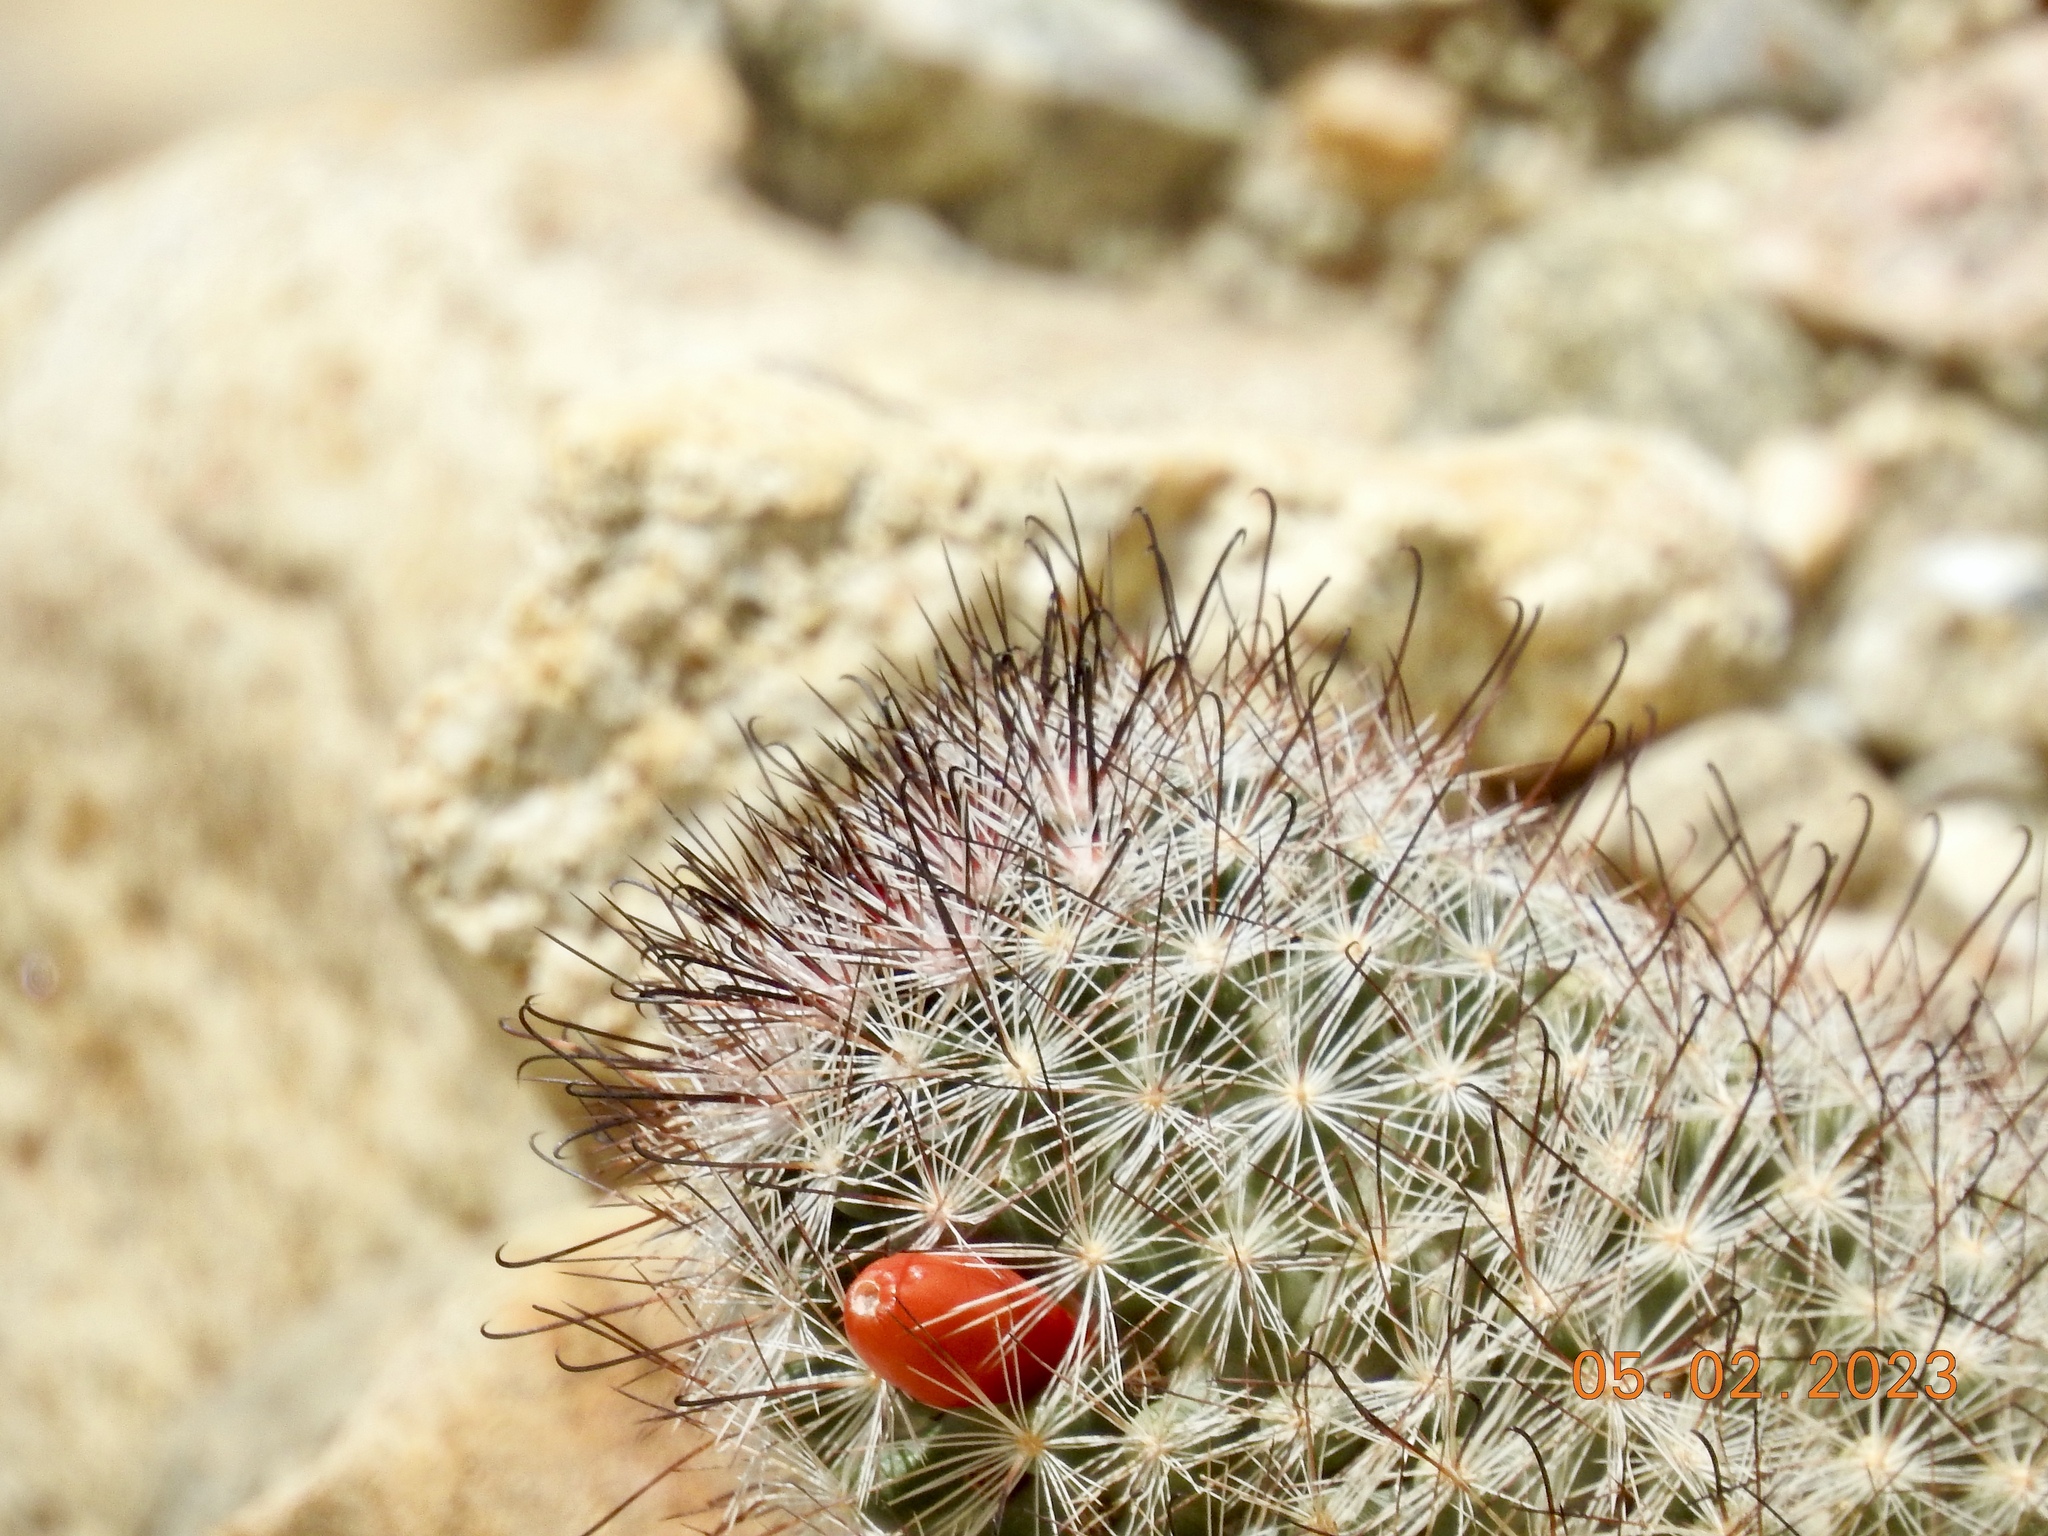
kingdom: Plantae
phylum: Tracheophyta
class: Magnoliopsida
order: Caryophyllales
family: Cactaceae
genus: Cochemiea
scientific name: Cochemiea tetrancistra
